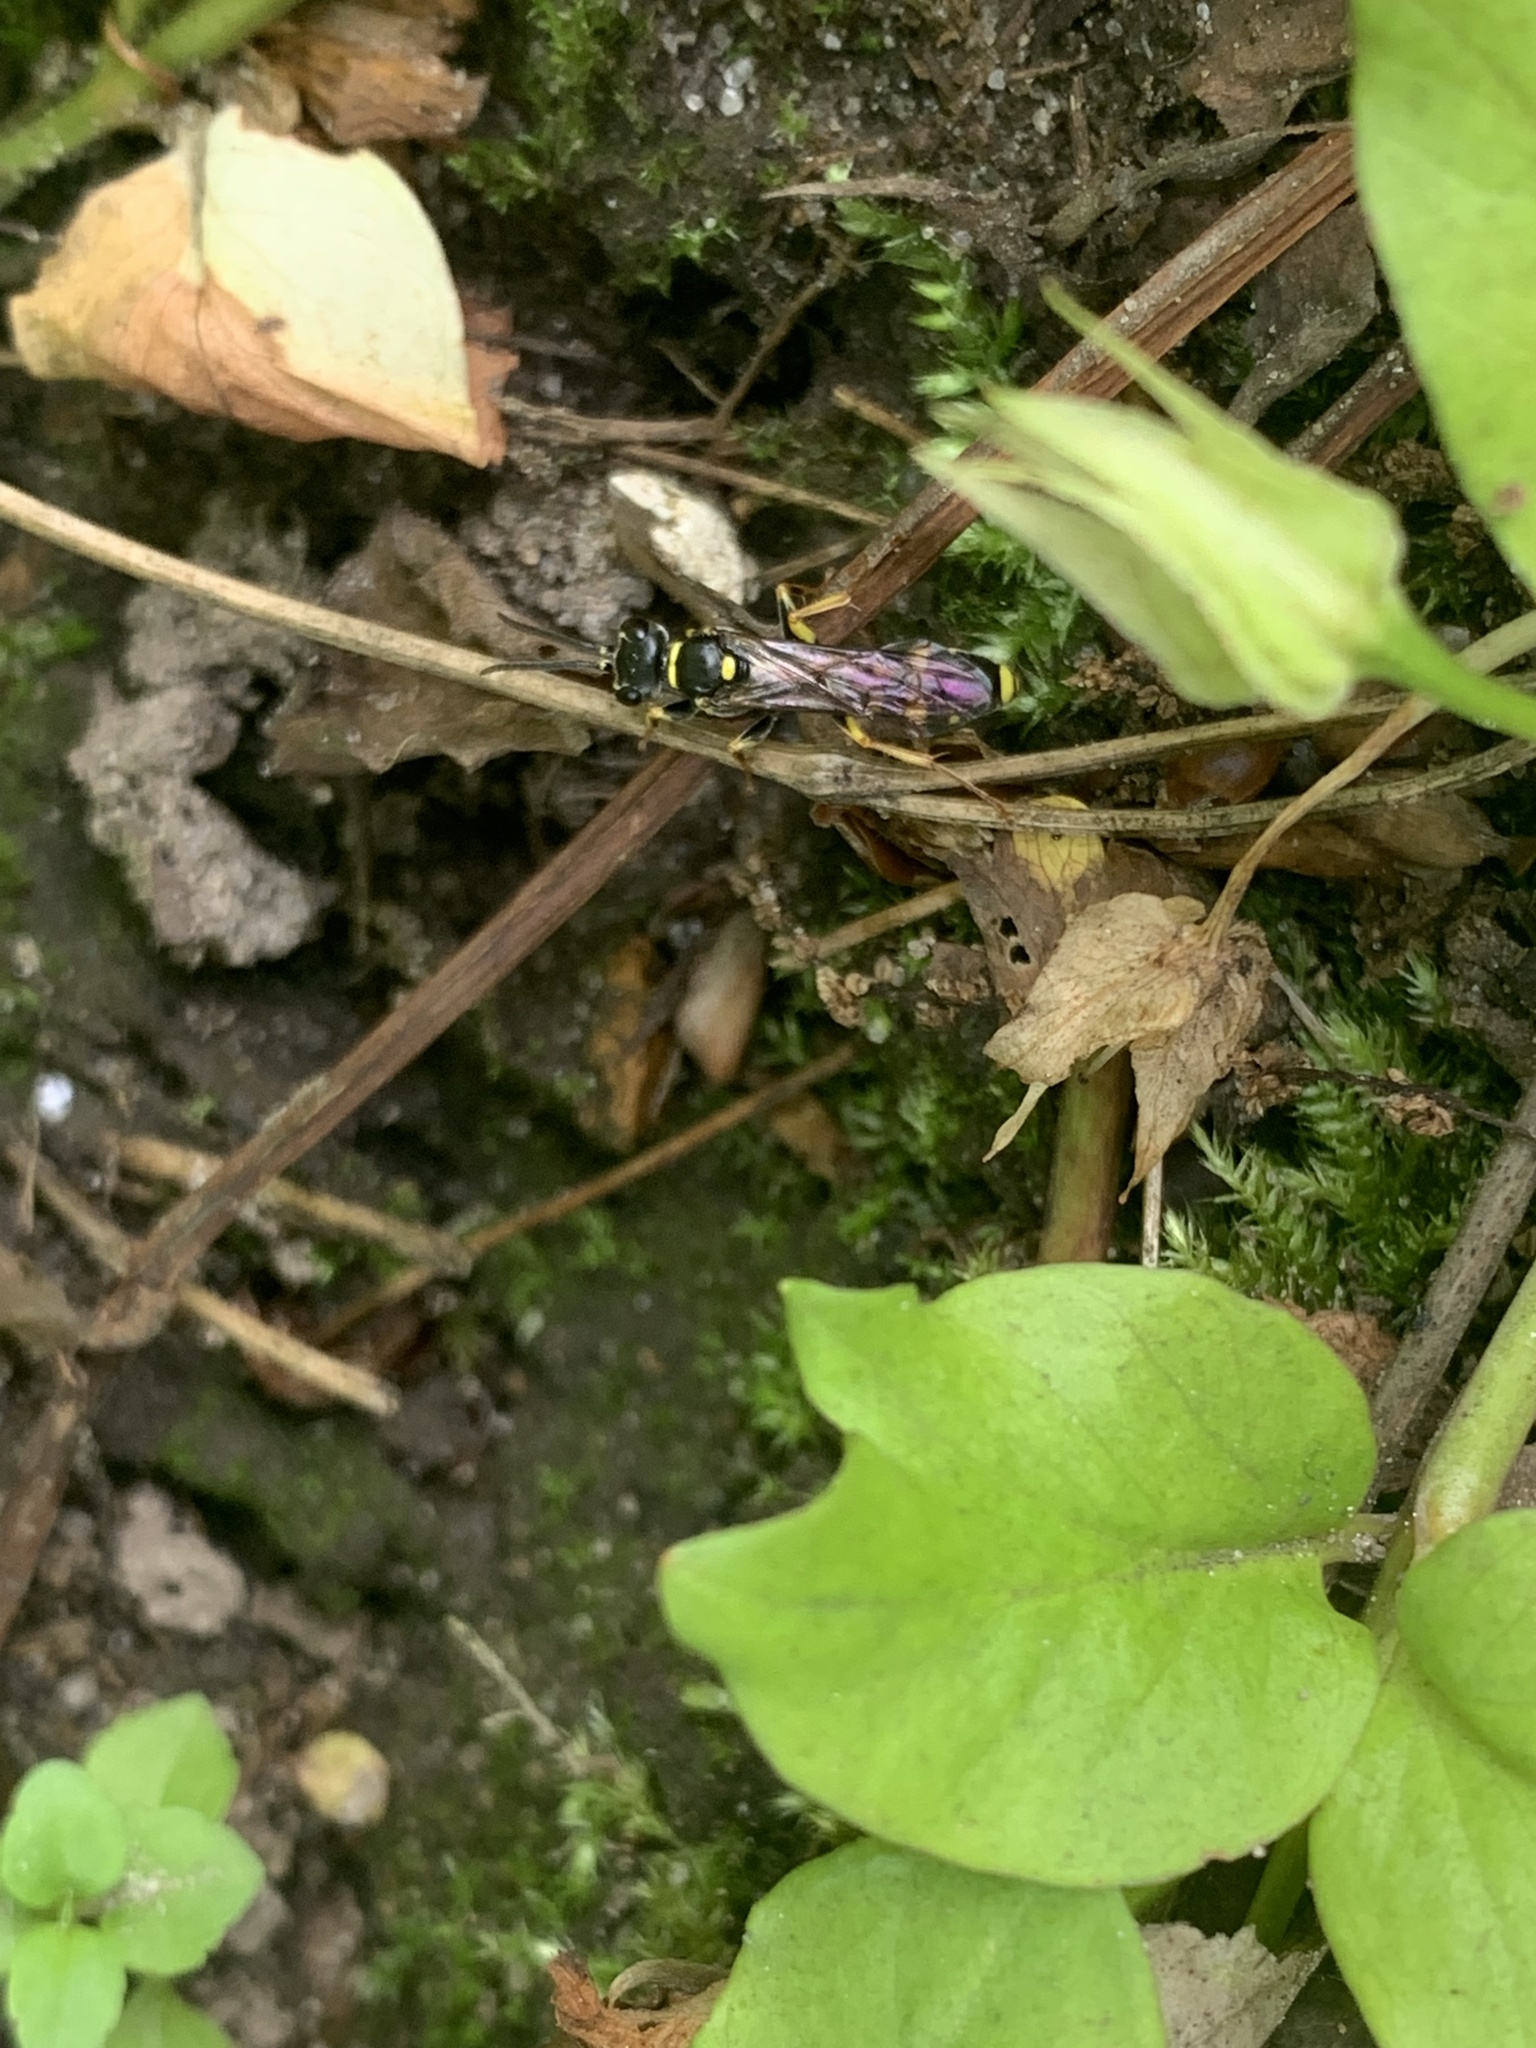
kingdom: Animalia
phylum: Arthropoda
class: Insecta
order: Hymenoptera
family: Crabronidae
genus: Mellinus
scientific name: Mellinus arvensis
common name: Field digger wasp
